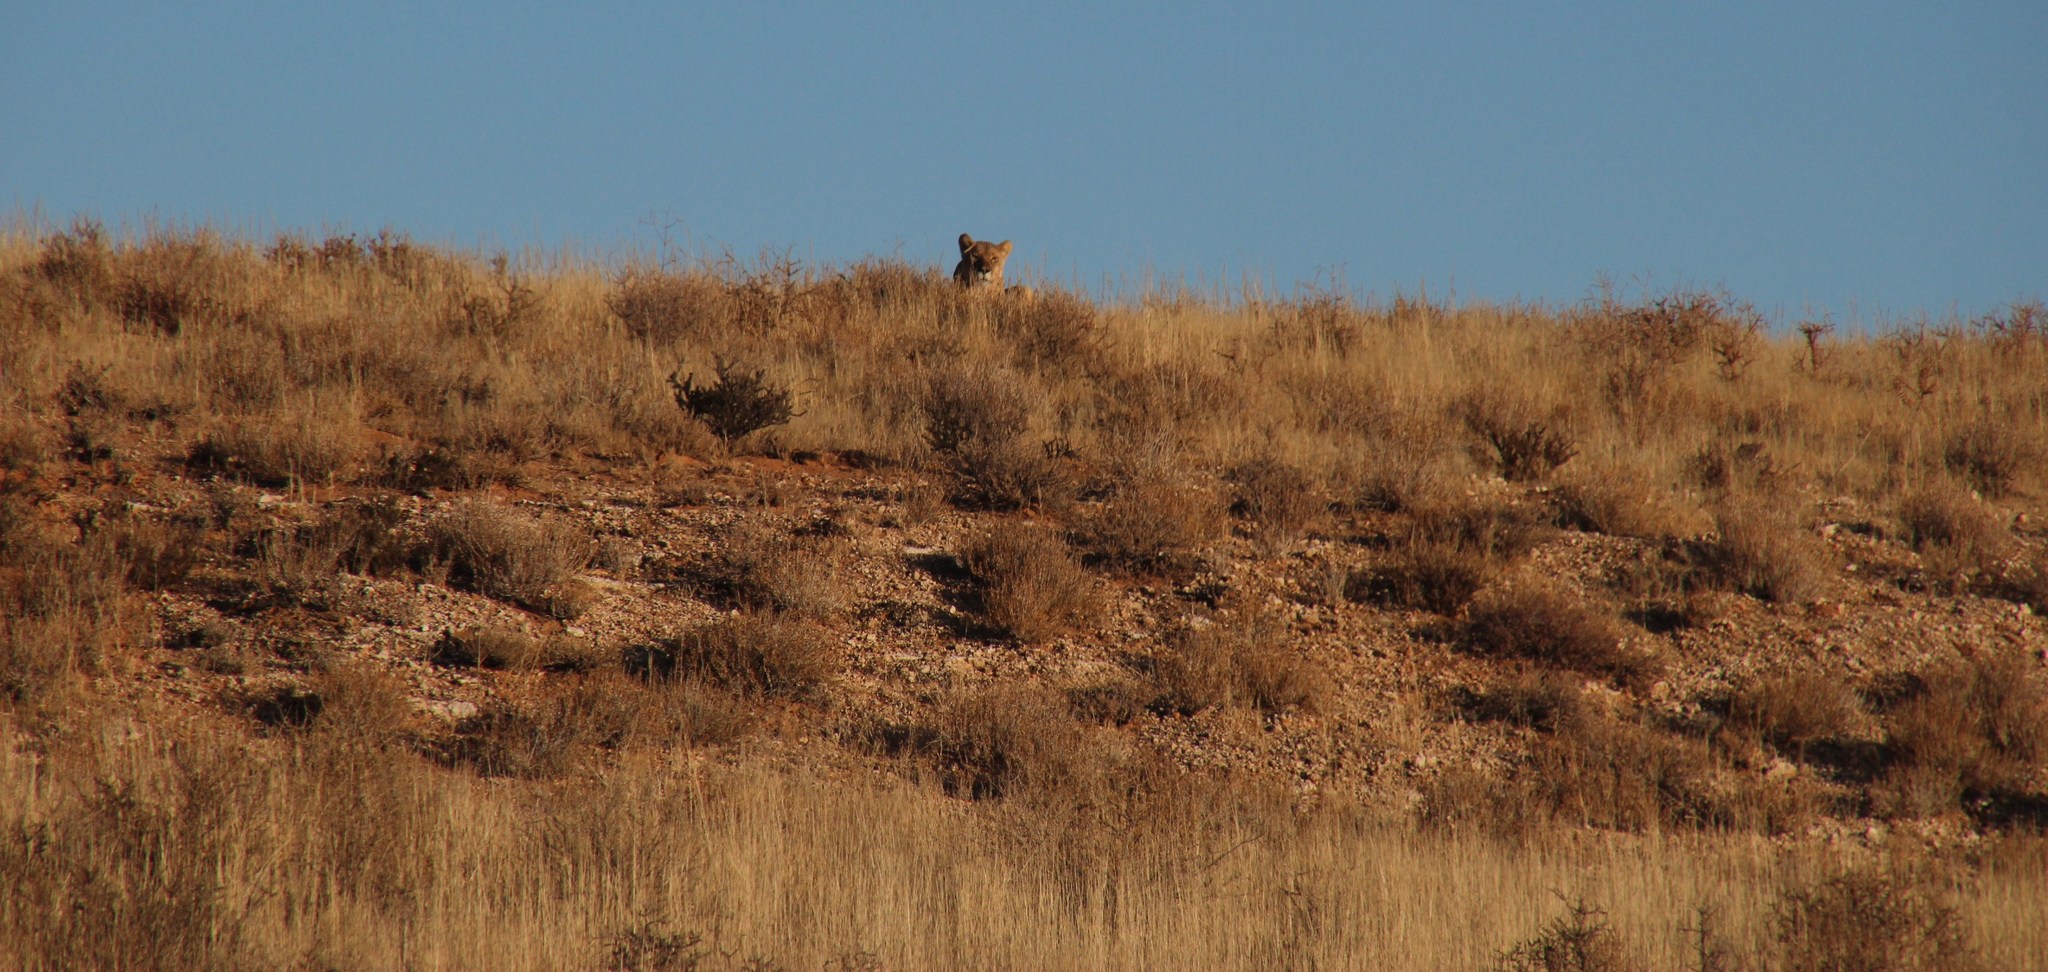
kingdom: Animalia
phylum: Chordata
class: Mammalia
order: Carnivora
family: Felidae
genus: Panthera
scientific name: Panthera leo
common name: Lion
